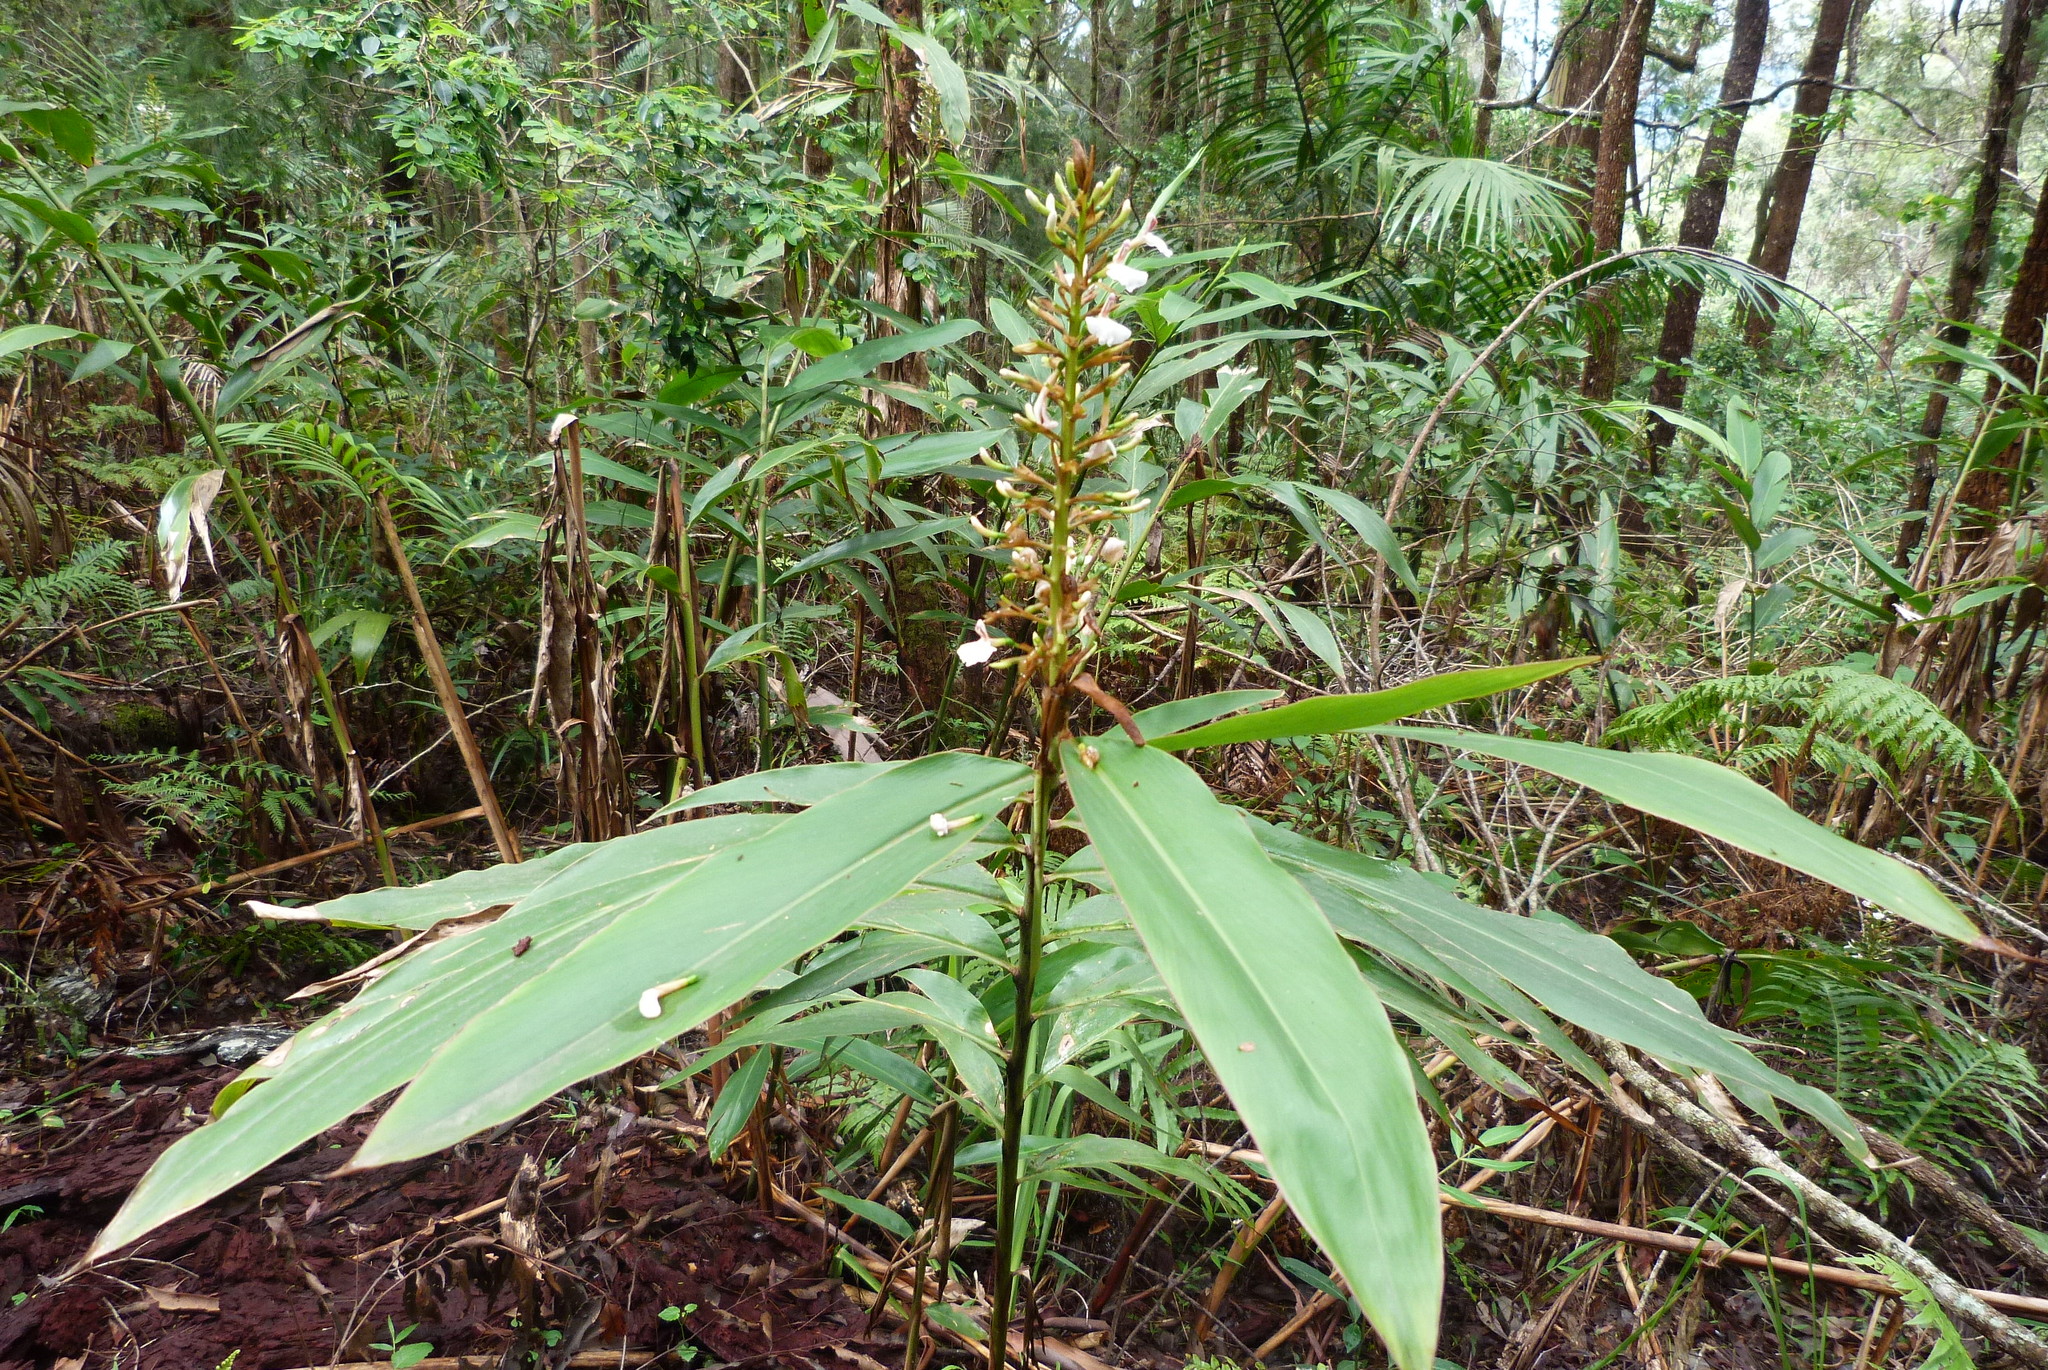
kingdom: Plantae
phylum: Tracheophyta
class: Liliopsida
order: Zingiberales
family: Zingiberaceae
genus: Alpinia
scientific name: Alpinia caerulea
